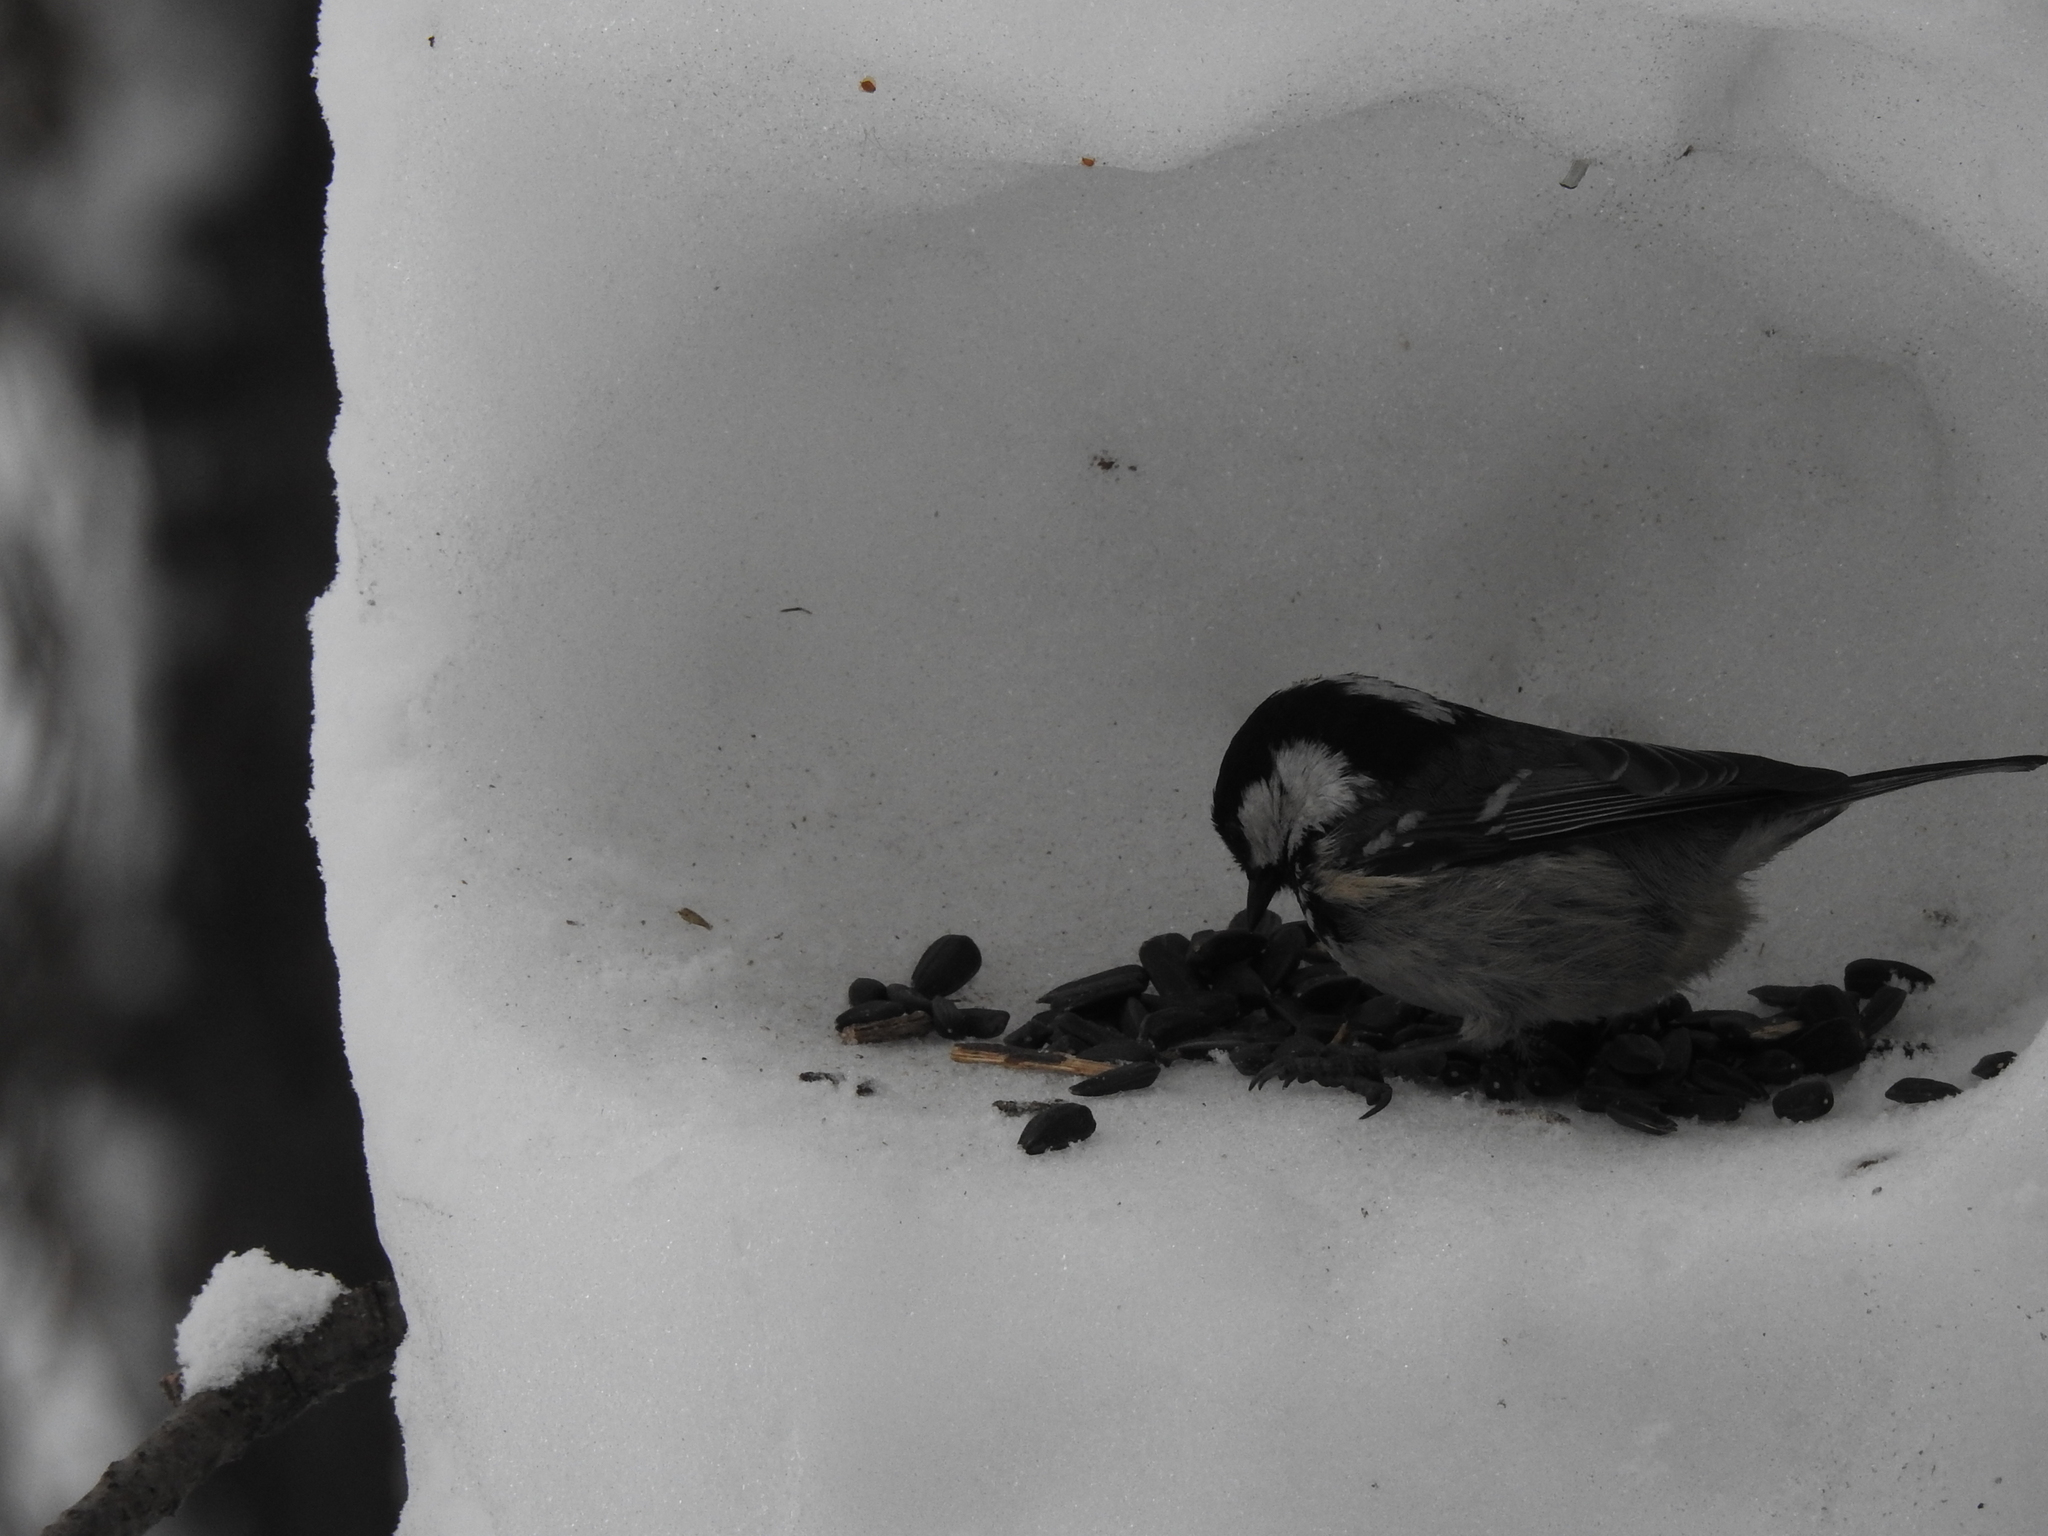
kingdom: Animalia
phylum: Chordata
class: Aves
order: Passeriformes
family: Paridae
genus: Periparus
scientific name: Periparus ater
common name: Coal tit
